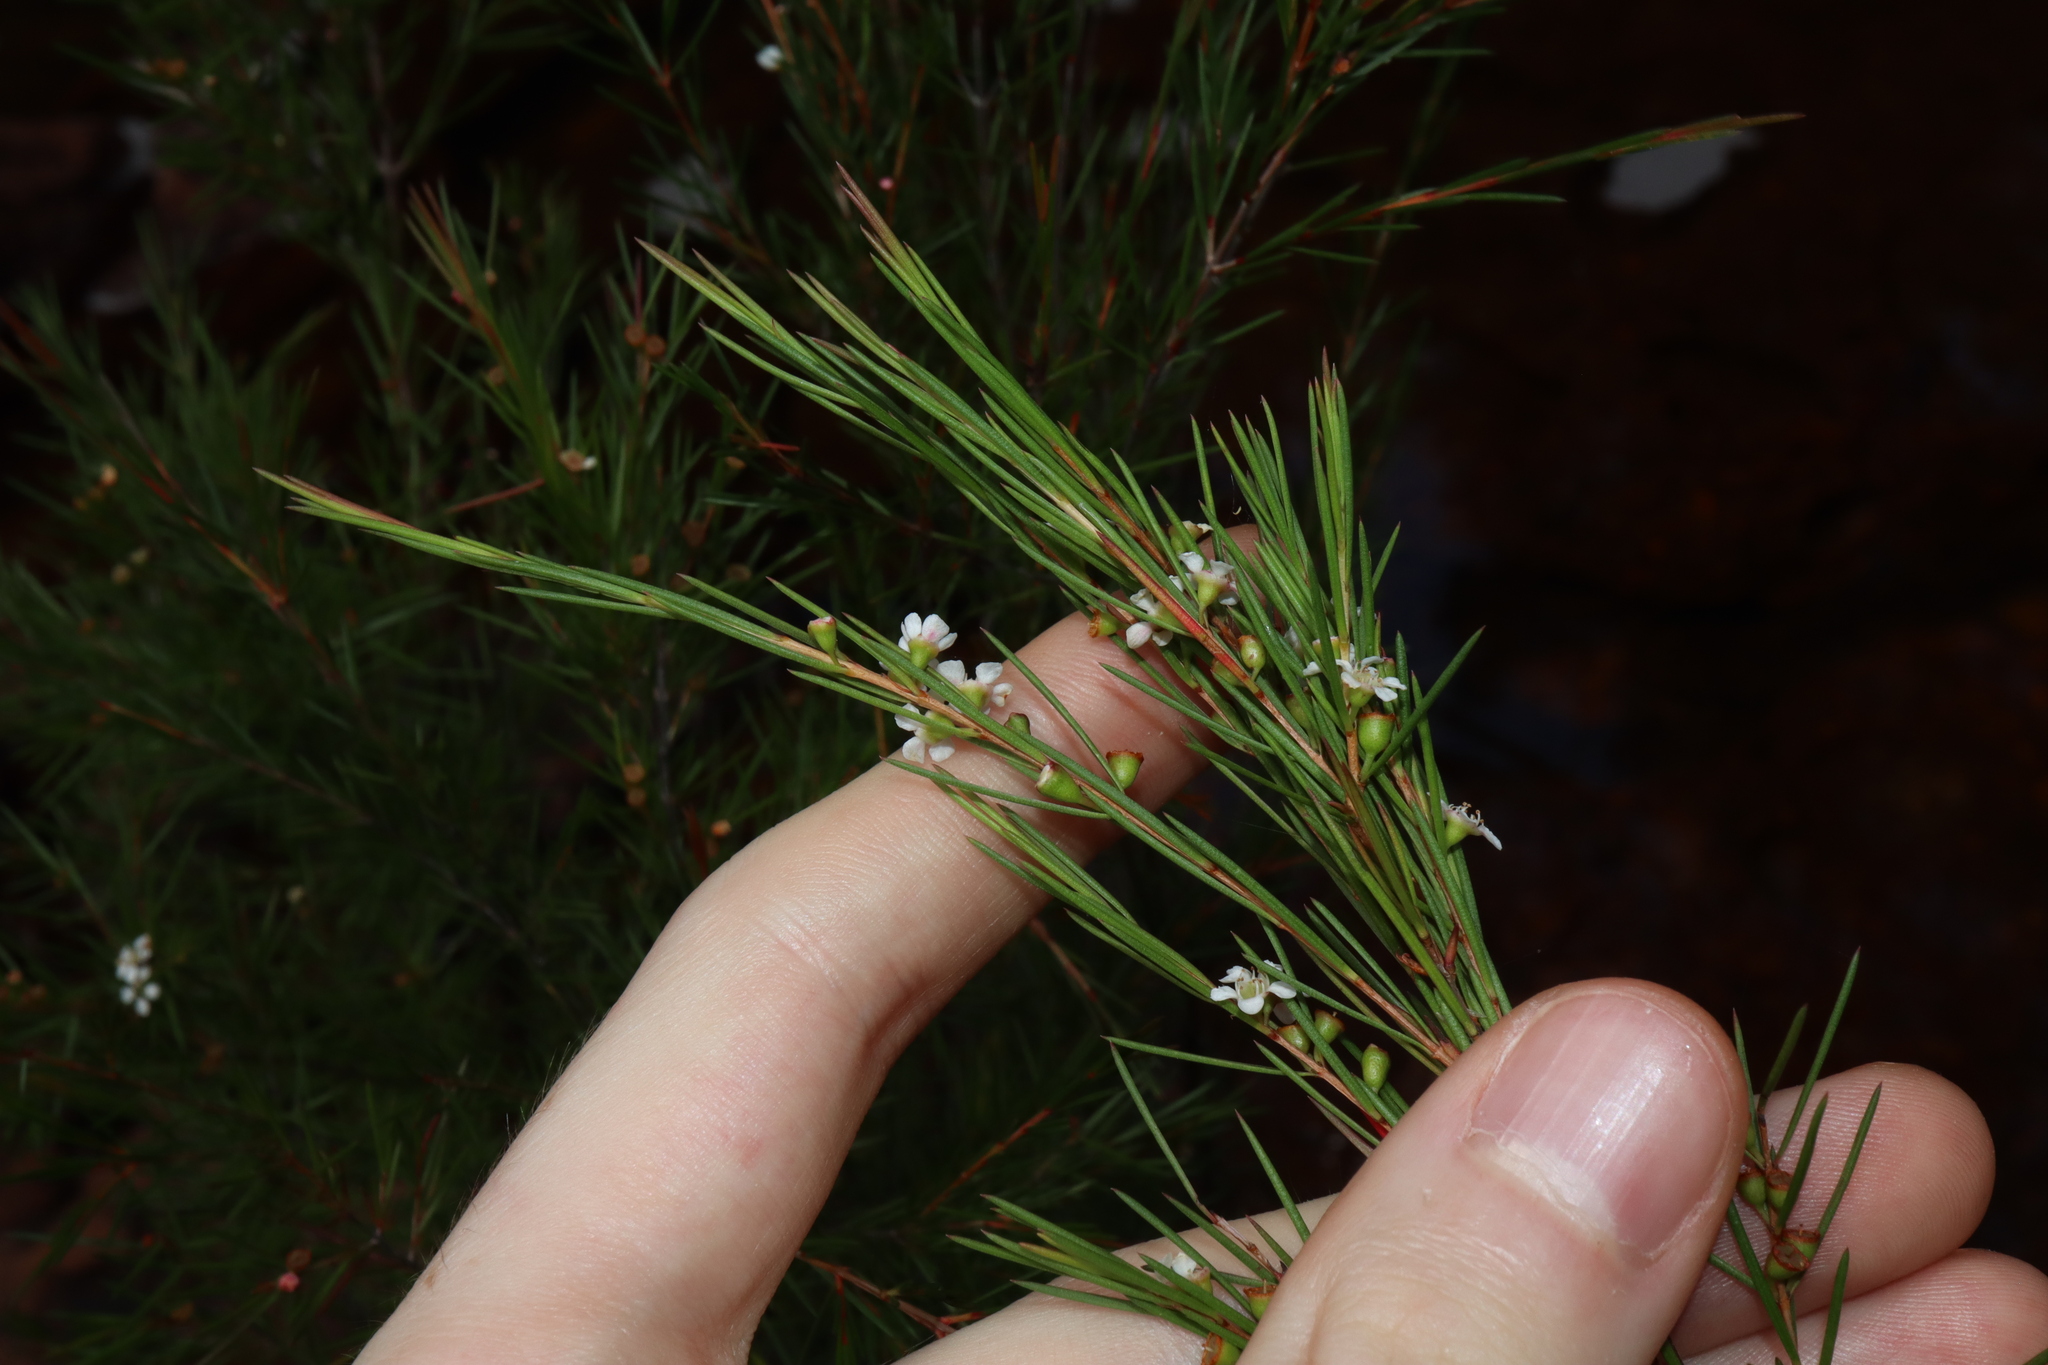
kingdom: Plantae
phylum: Tracheophyta
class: Magnoliopsida
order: Myrtales
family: Myrtaceae
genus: Baeckea
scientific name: Baeckea linifolia
